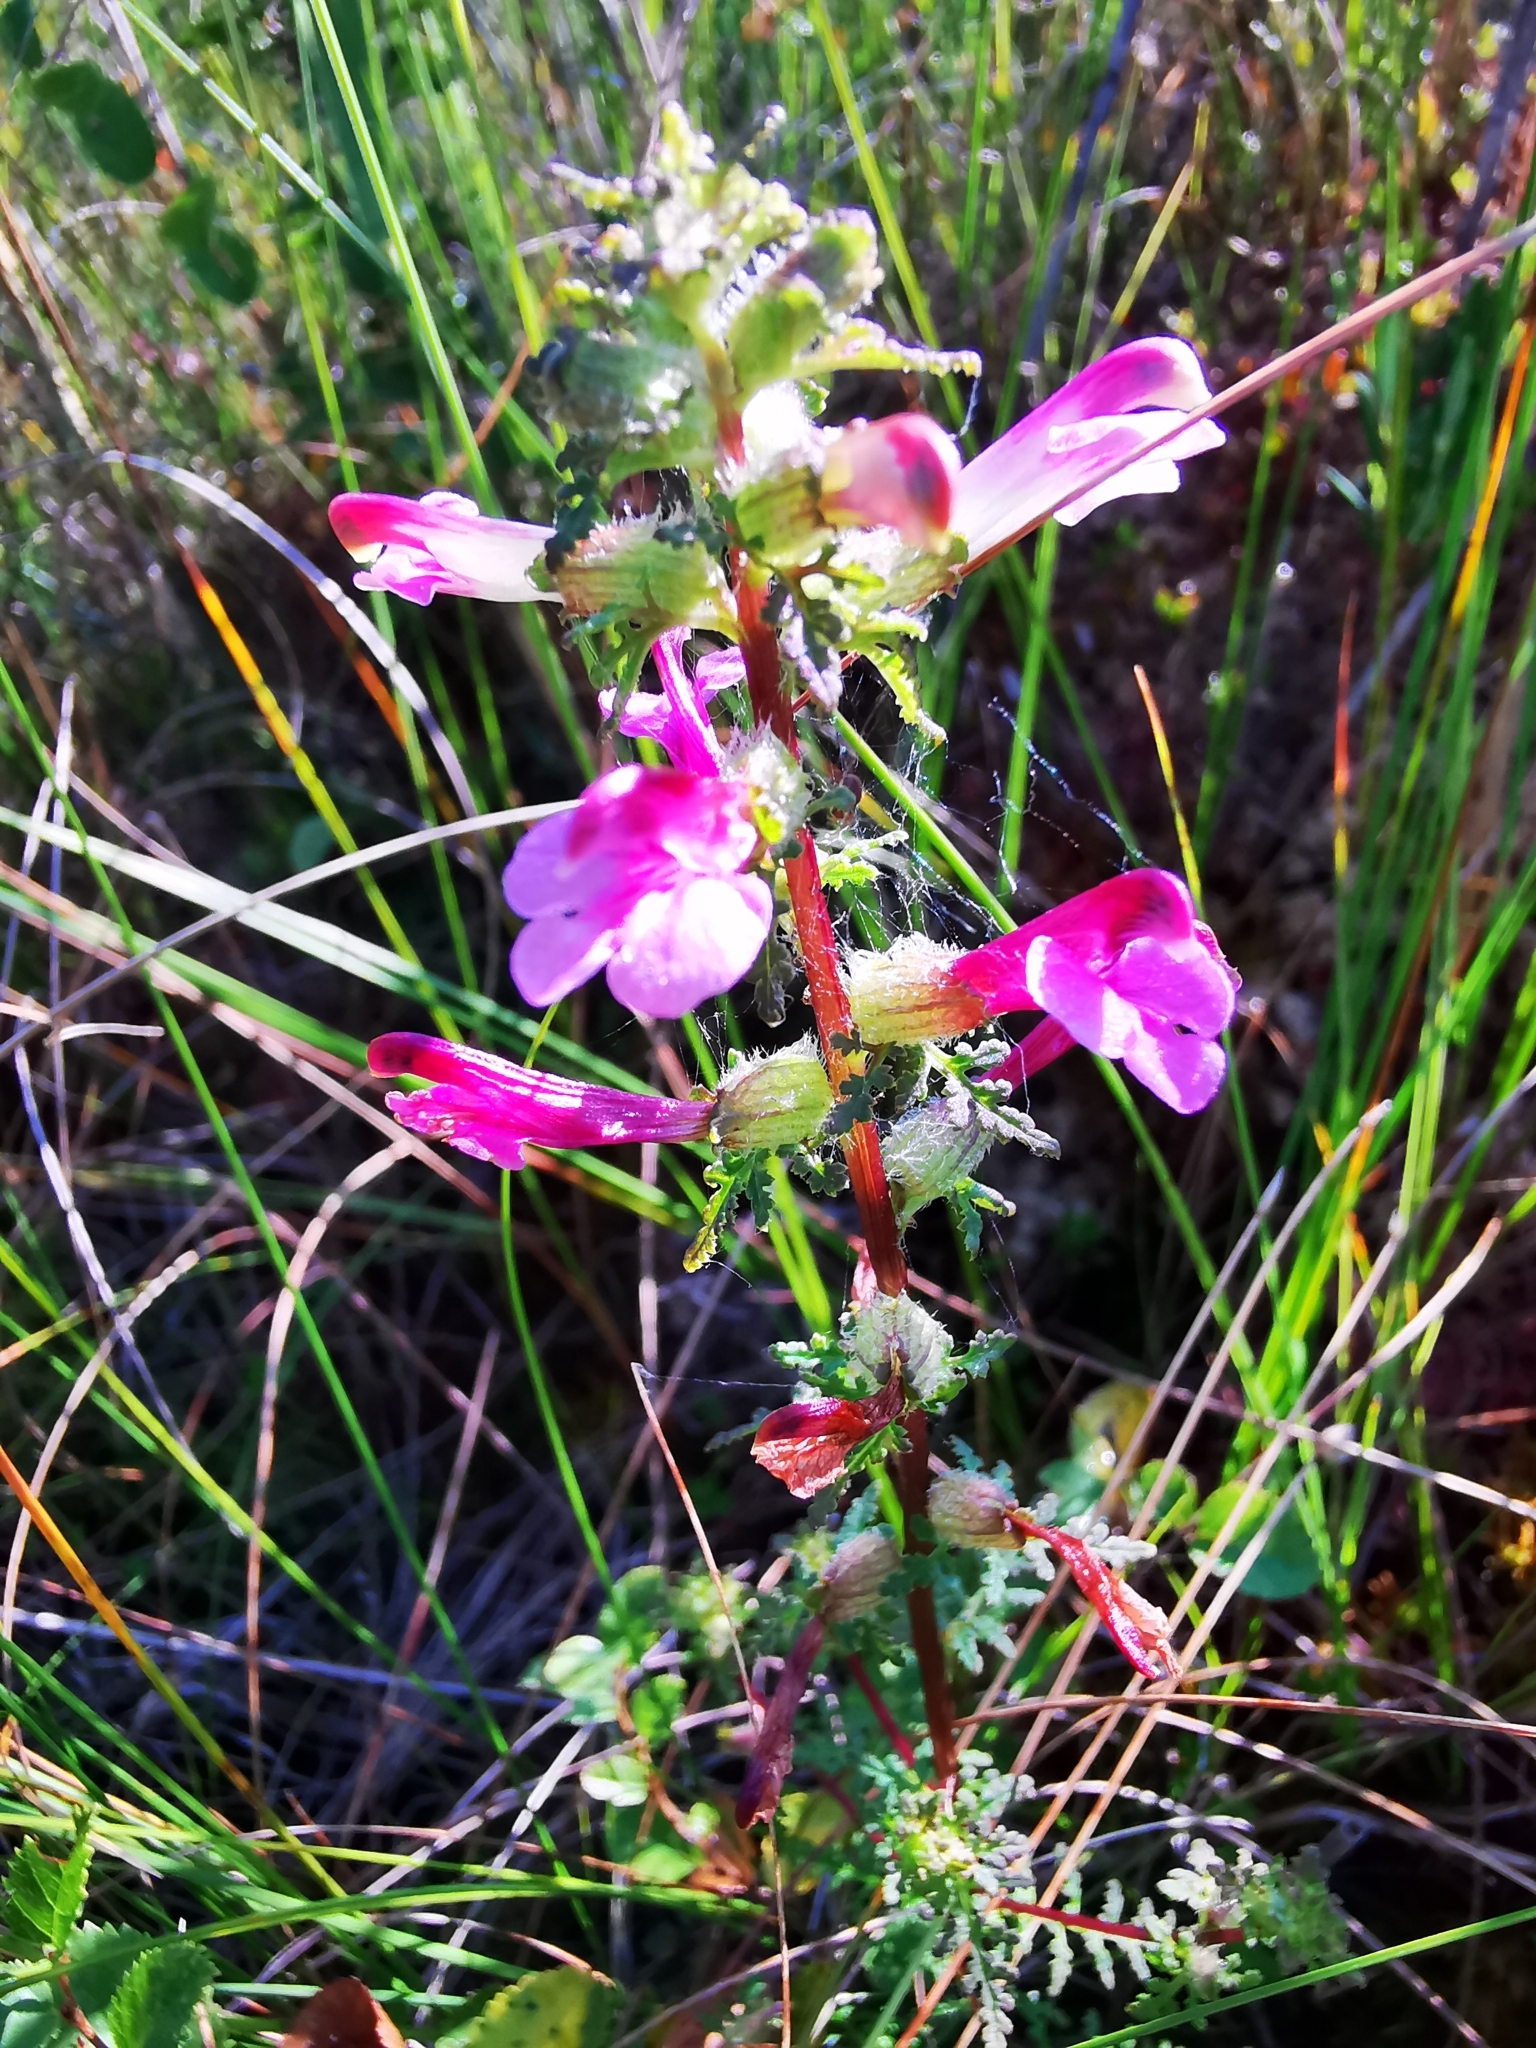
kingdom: Plantae
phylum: Tracheophyta
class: Magnoliopsida
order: Lamiales
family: Orobanchaceae
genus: Pedicularis
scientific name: Pedicularis palustris
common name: Marsh lousewort
